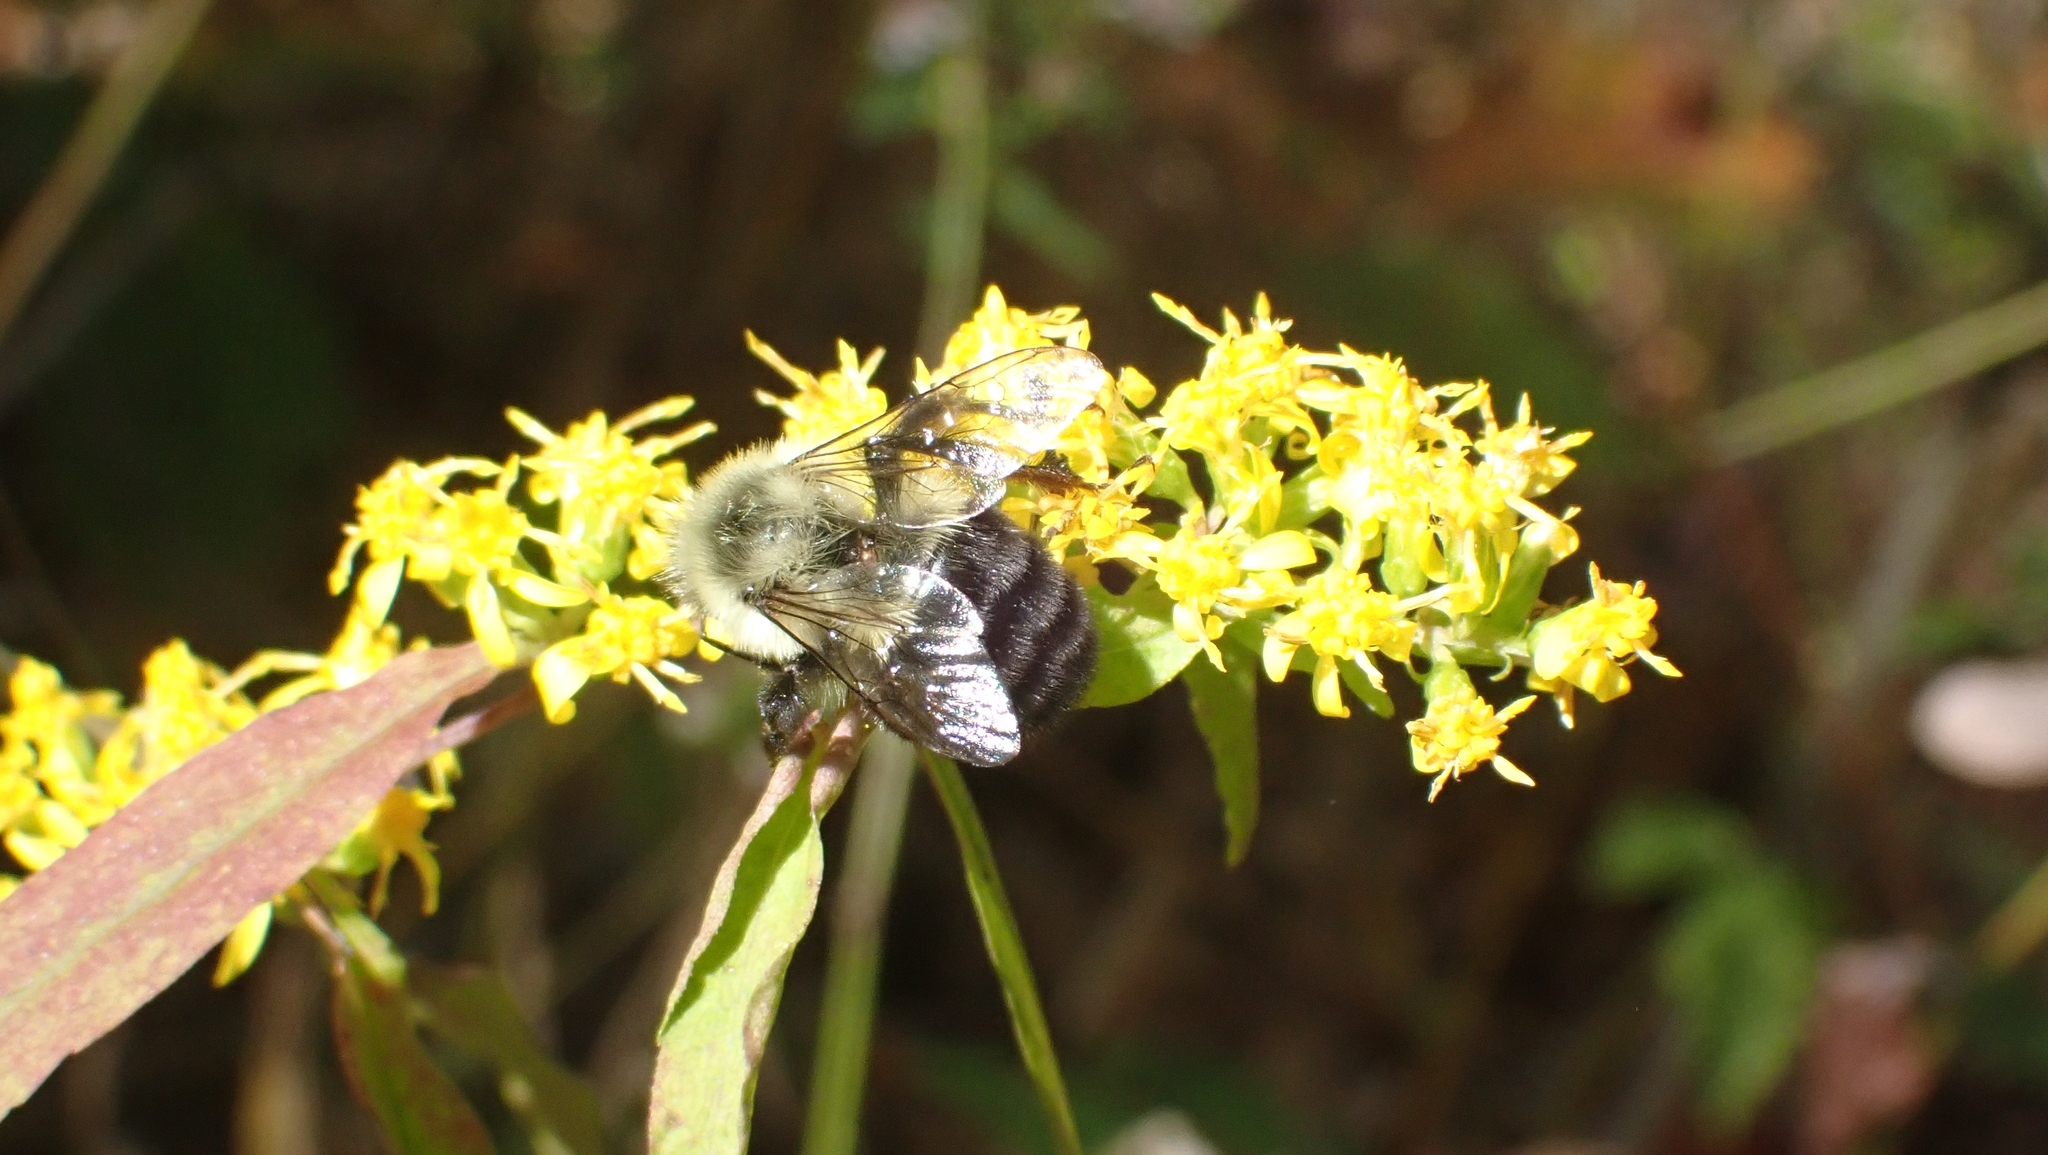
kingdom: Animalia
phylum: Arthropoda
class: Insecta
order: Hymenoptera
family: Apidae
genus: Bombus
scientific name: Bombus impatiens
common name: Common eastern bumble bee
